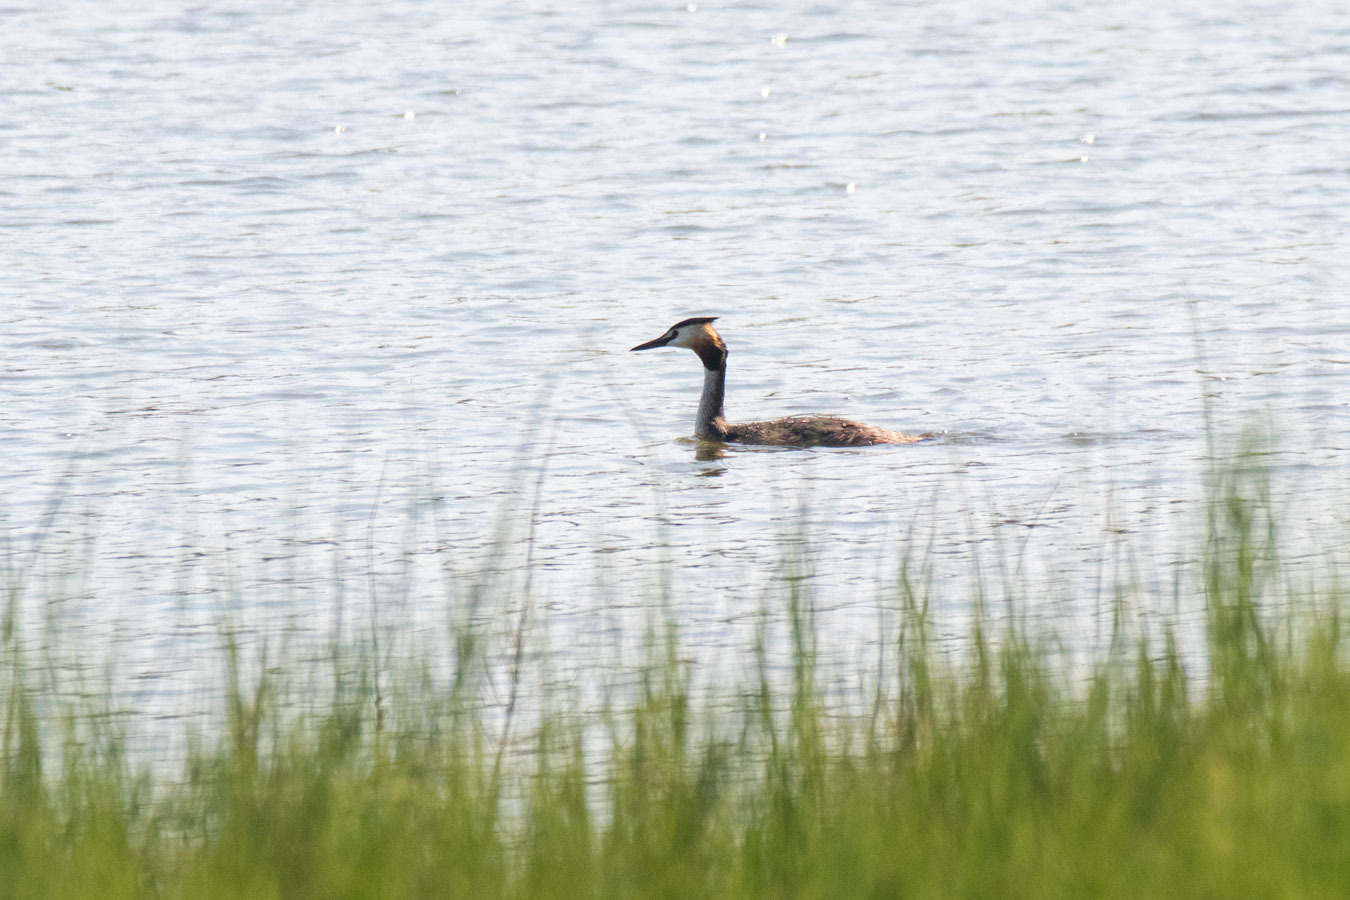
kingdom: Animalia
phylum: Chordata
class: Aves
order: Podicipediformes
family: Podicipedidae
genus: Podiceps
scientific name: Podiceps cristatus
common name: Great crested grebe
